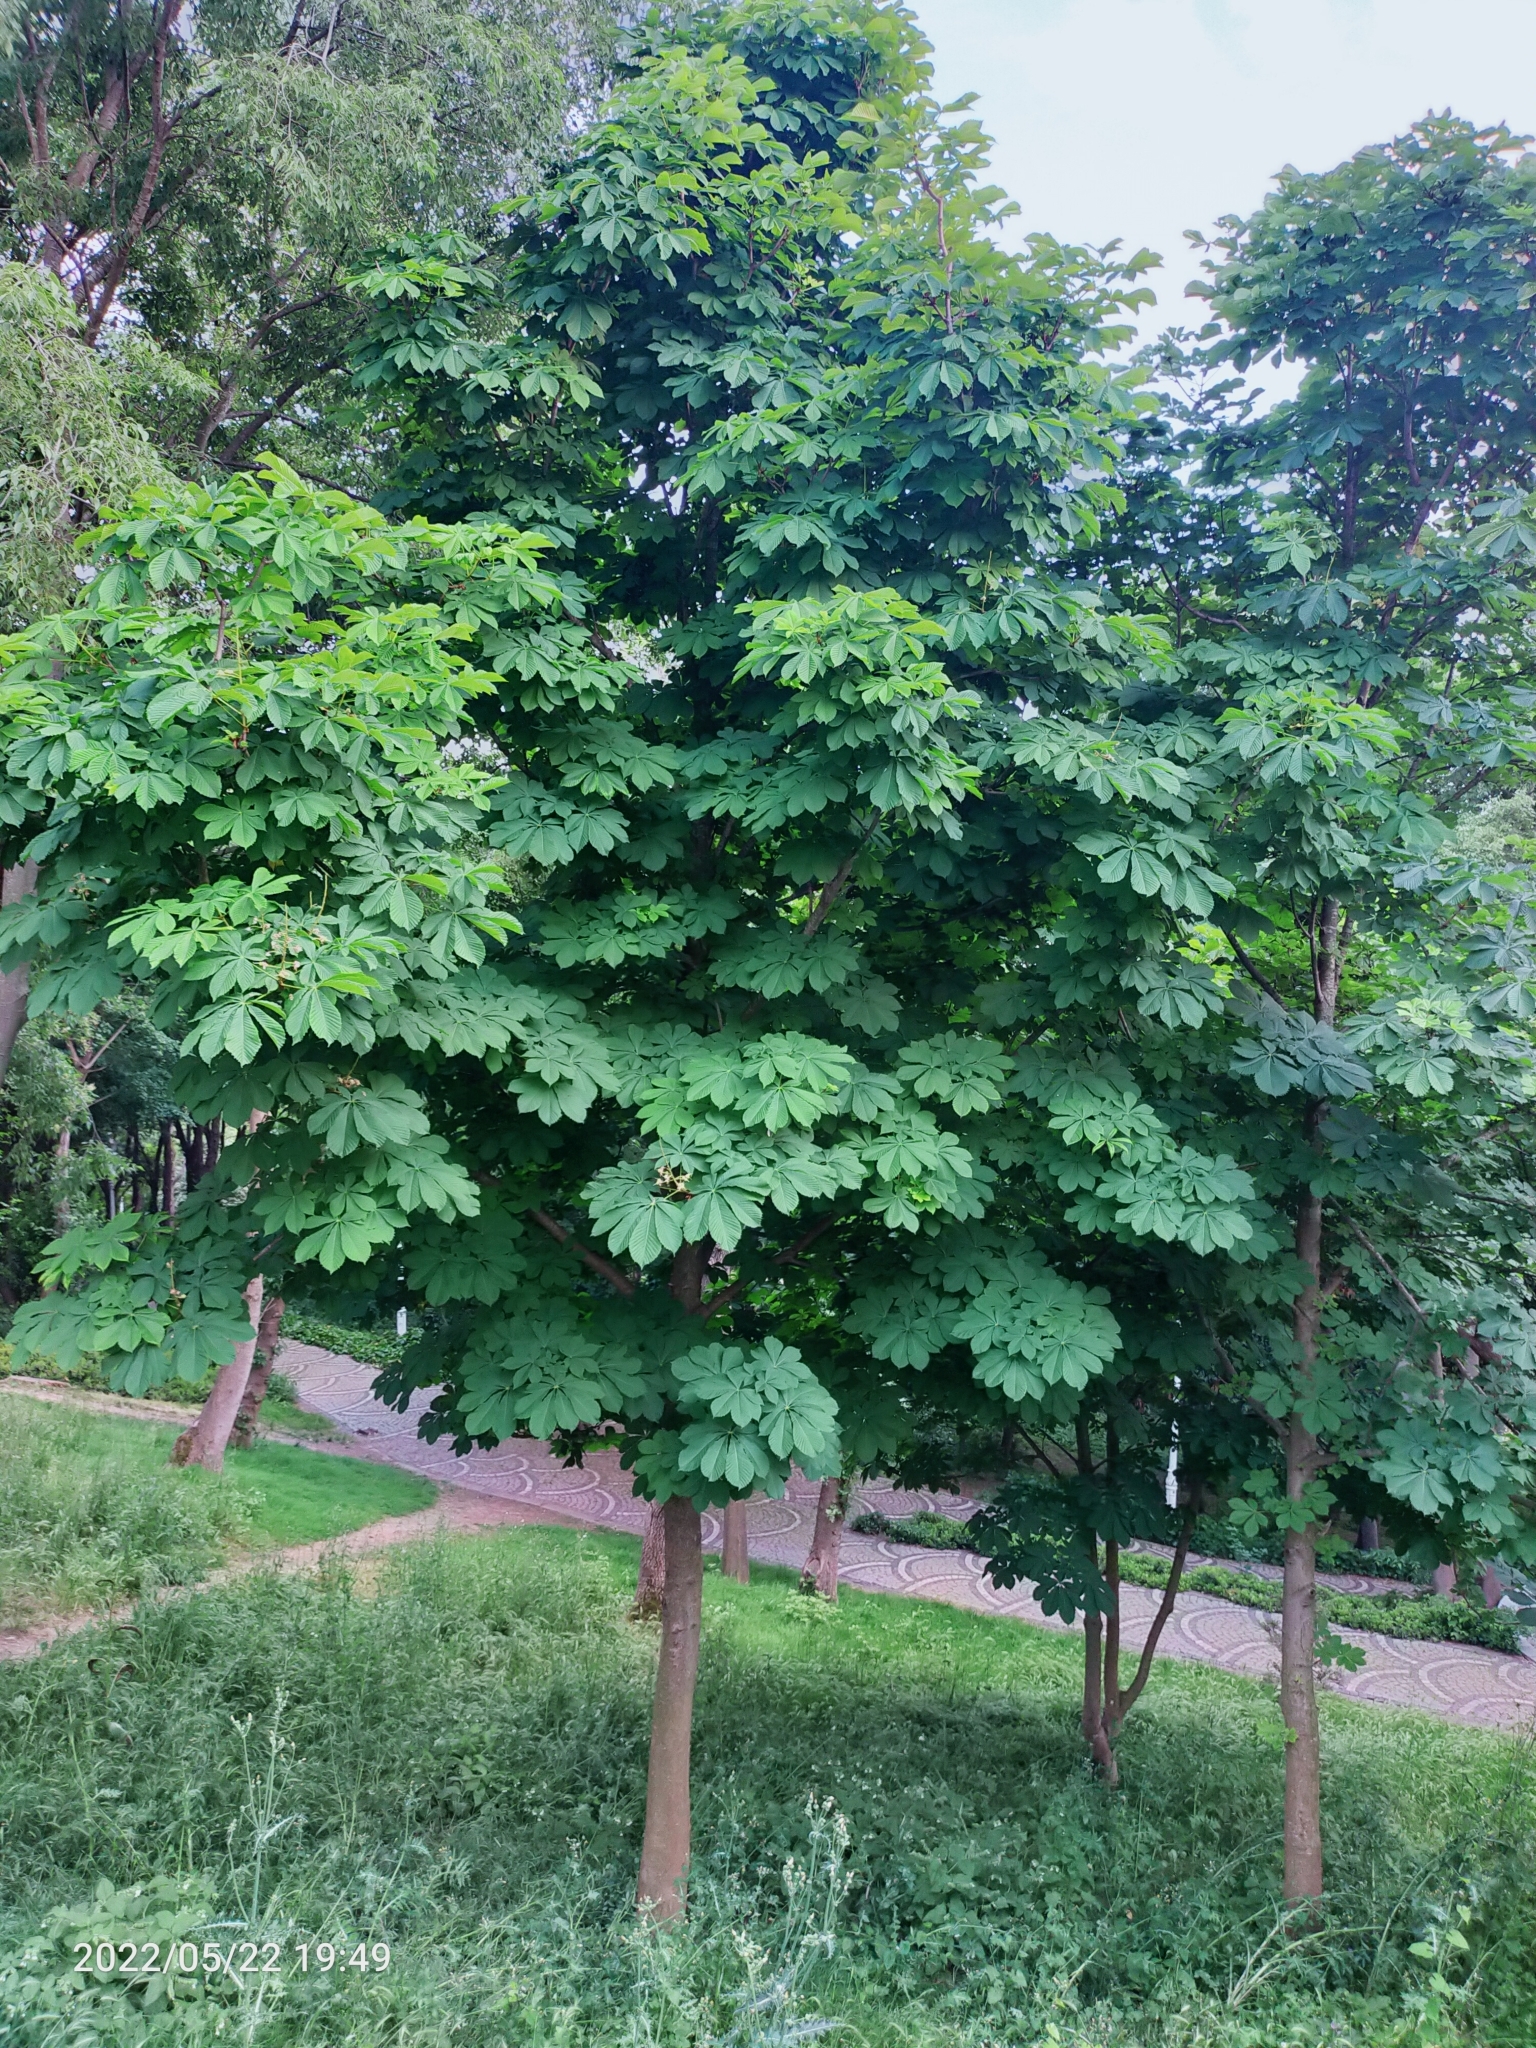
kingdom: Plantae
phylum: Tracheophyta
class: Magnoliopsida
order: Sapindales
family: Sapindaceae
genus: Aesculus
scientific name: Aesculus hippocastanum
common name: Horse-chestnut
